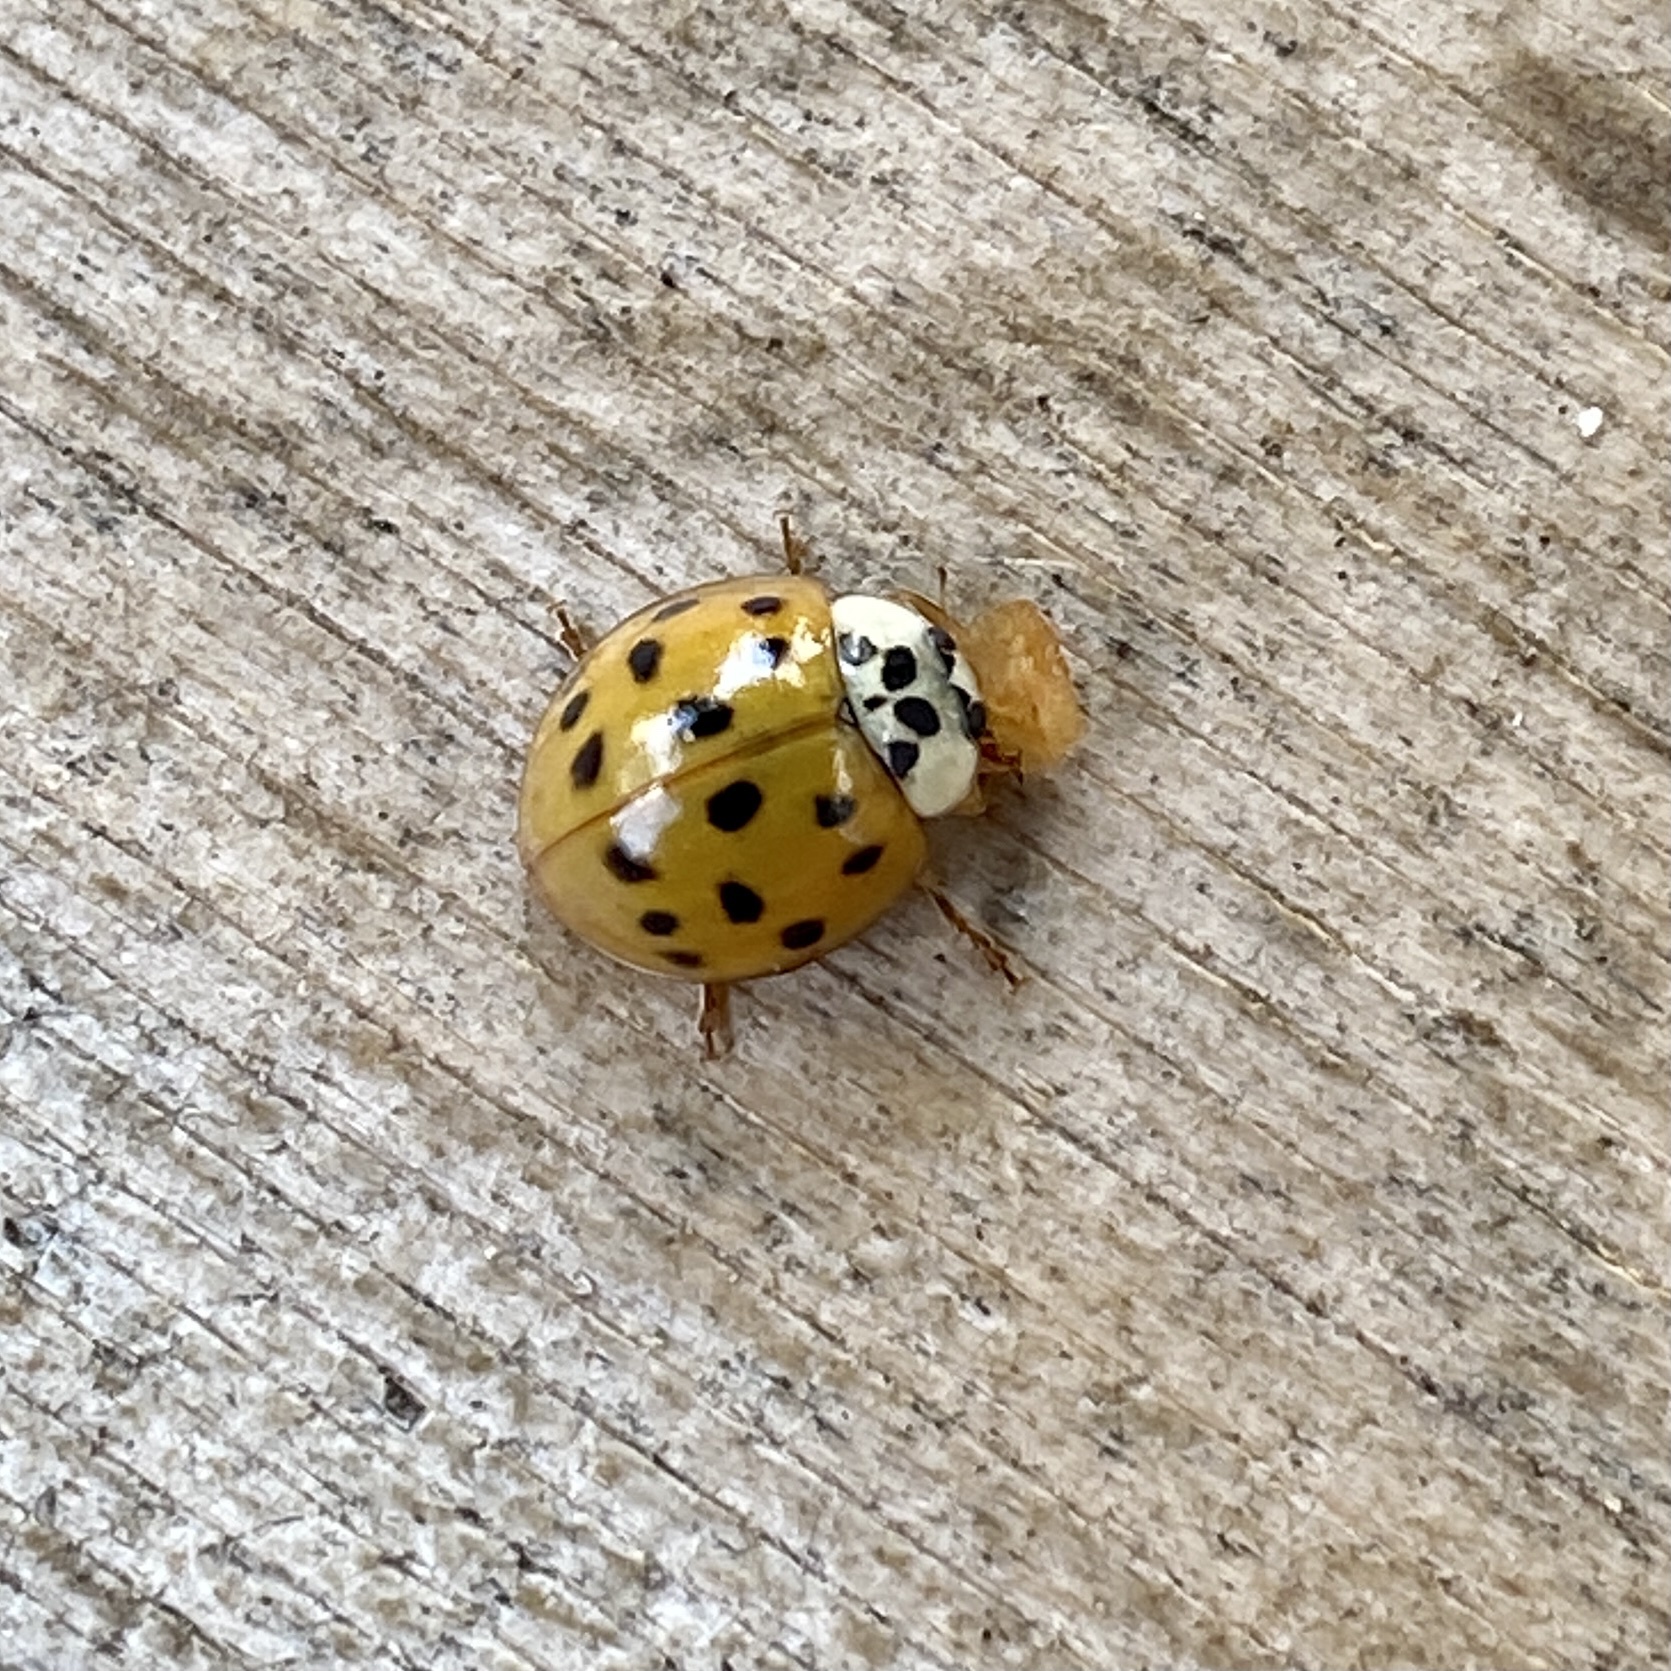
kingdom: Animalia
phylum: Arthropoda
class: Insecta
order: Coleoptera
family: Coccinellidae
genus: Harmonia
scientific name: Harmonia axyridis
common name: Harlequin ladybird
